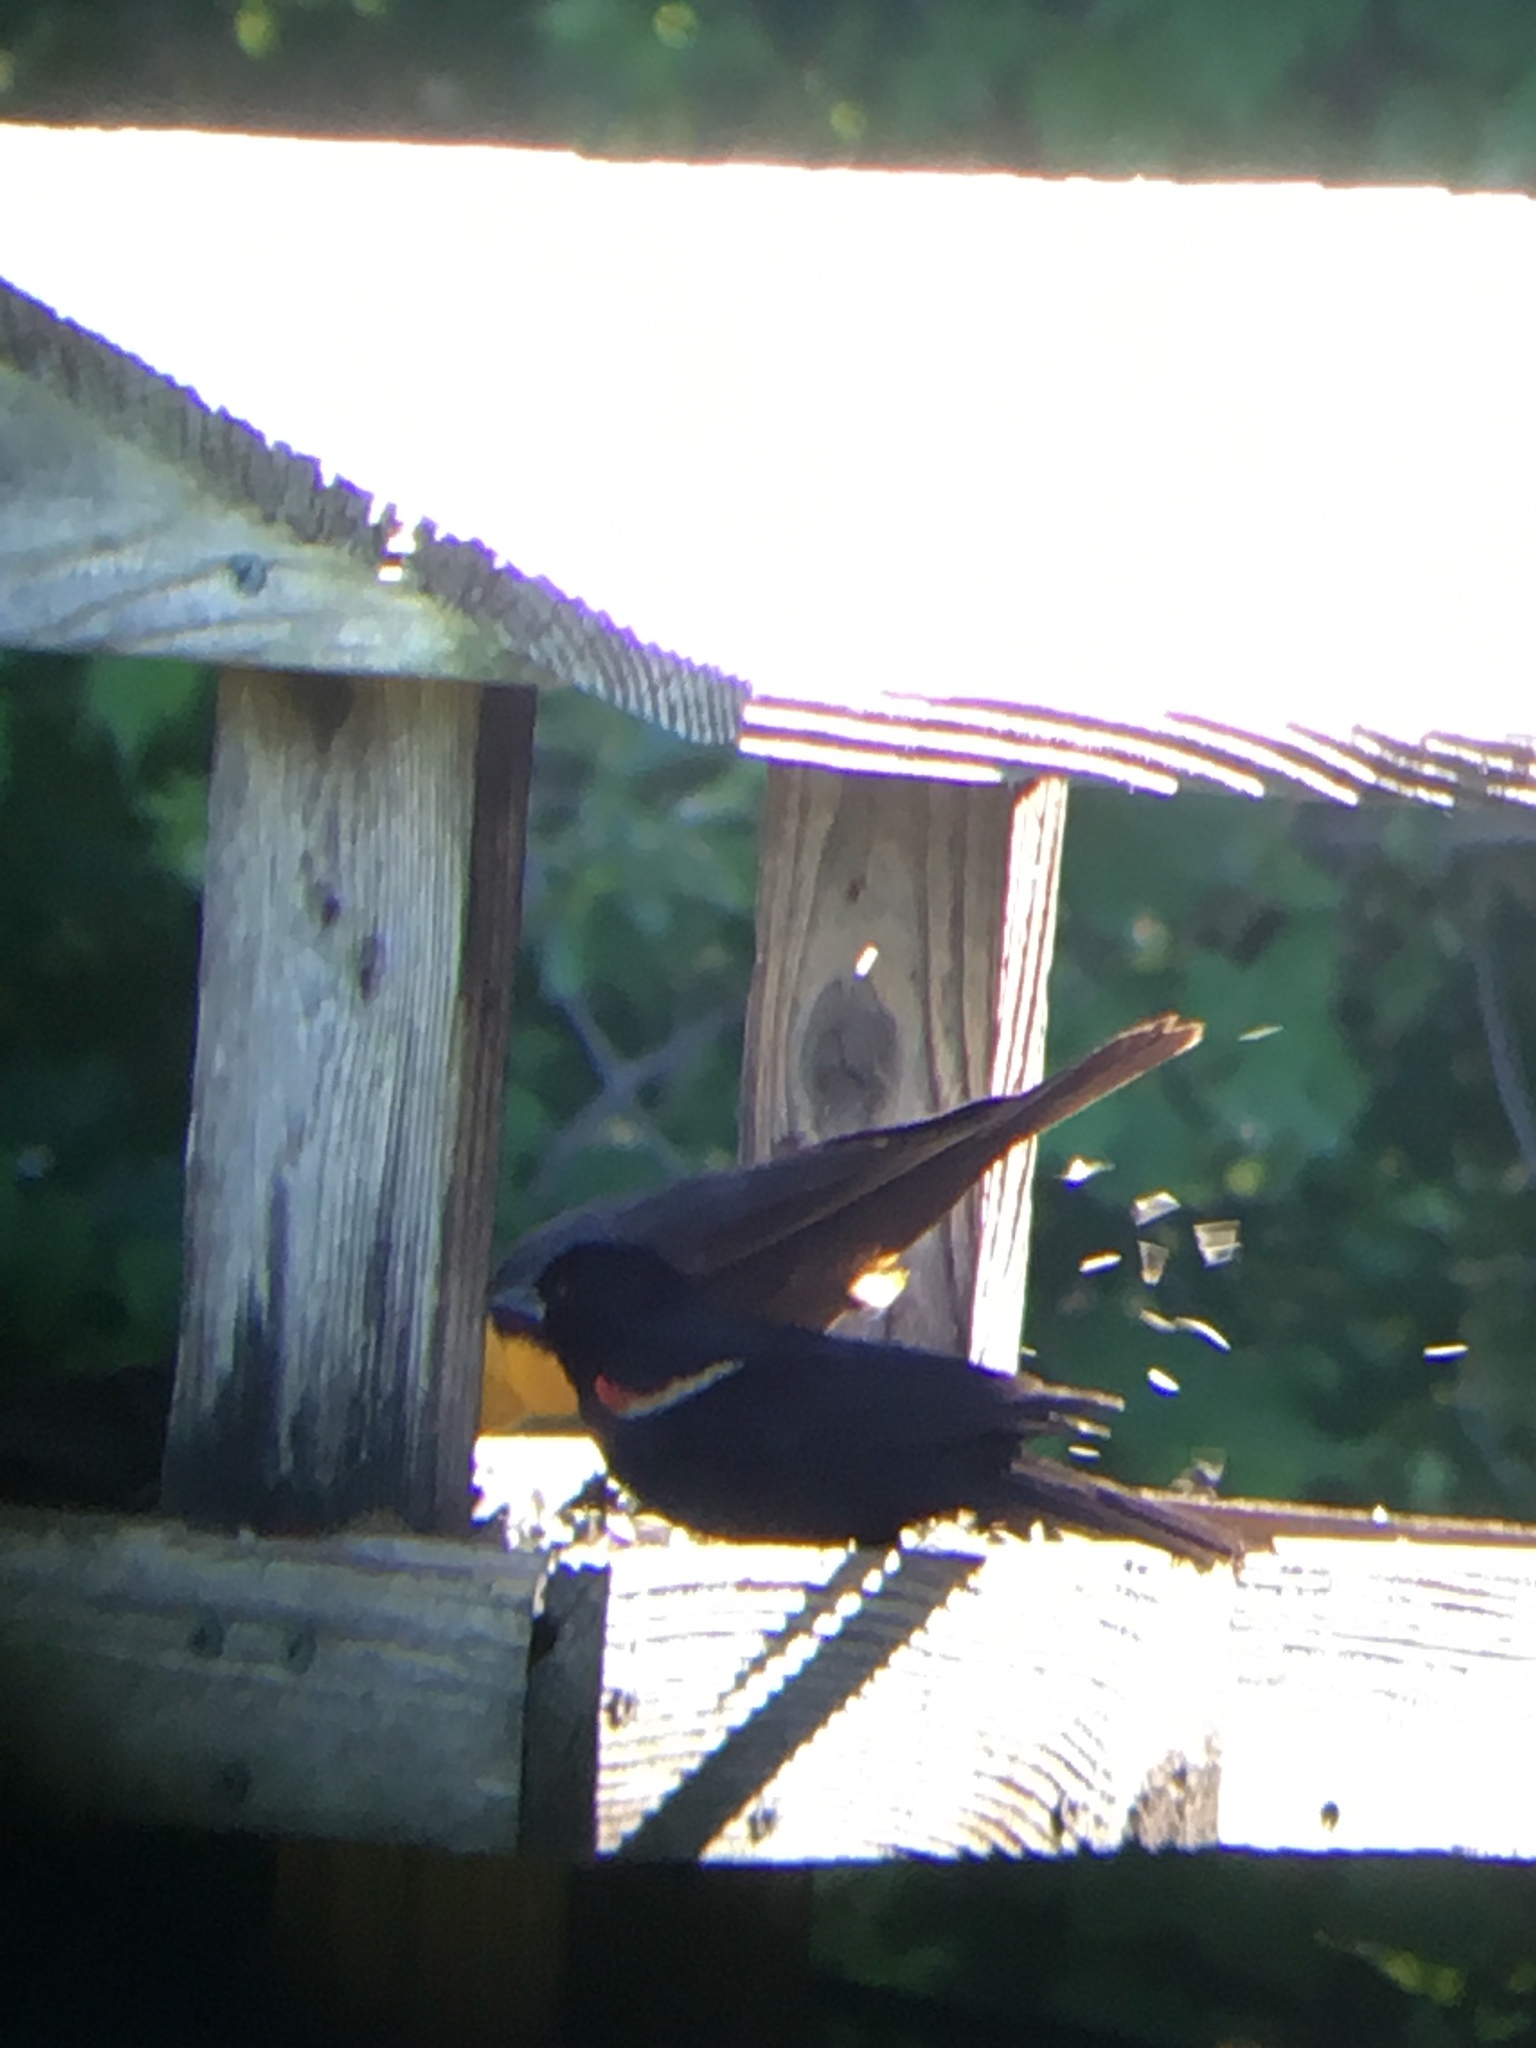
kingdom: Animalia
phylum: Chordata
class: Aves
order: Passeriformes
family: Icteridae
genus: Agelaius
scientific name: Agelaius phoeniceus
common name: Red-winged blackbird
